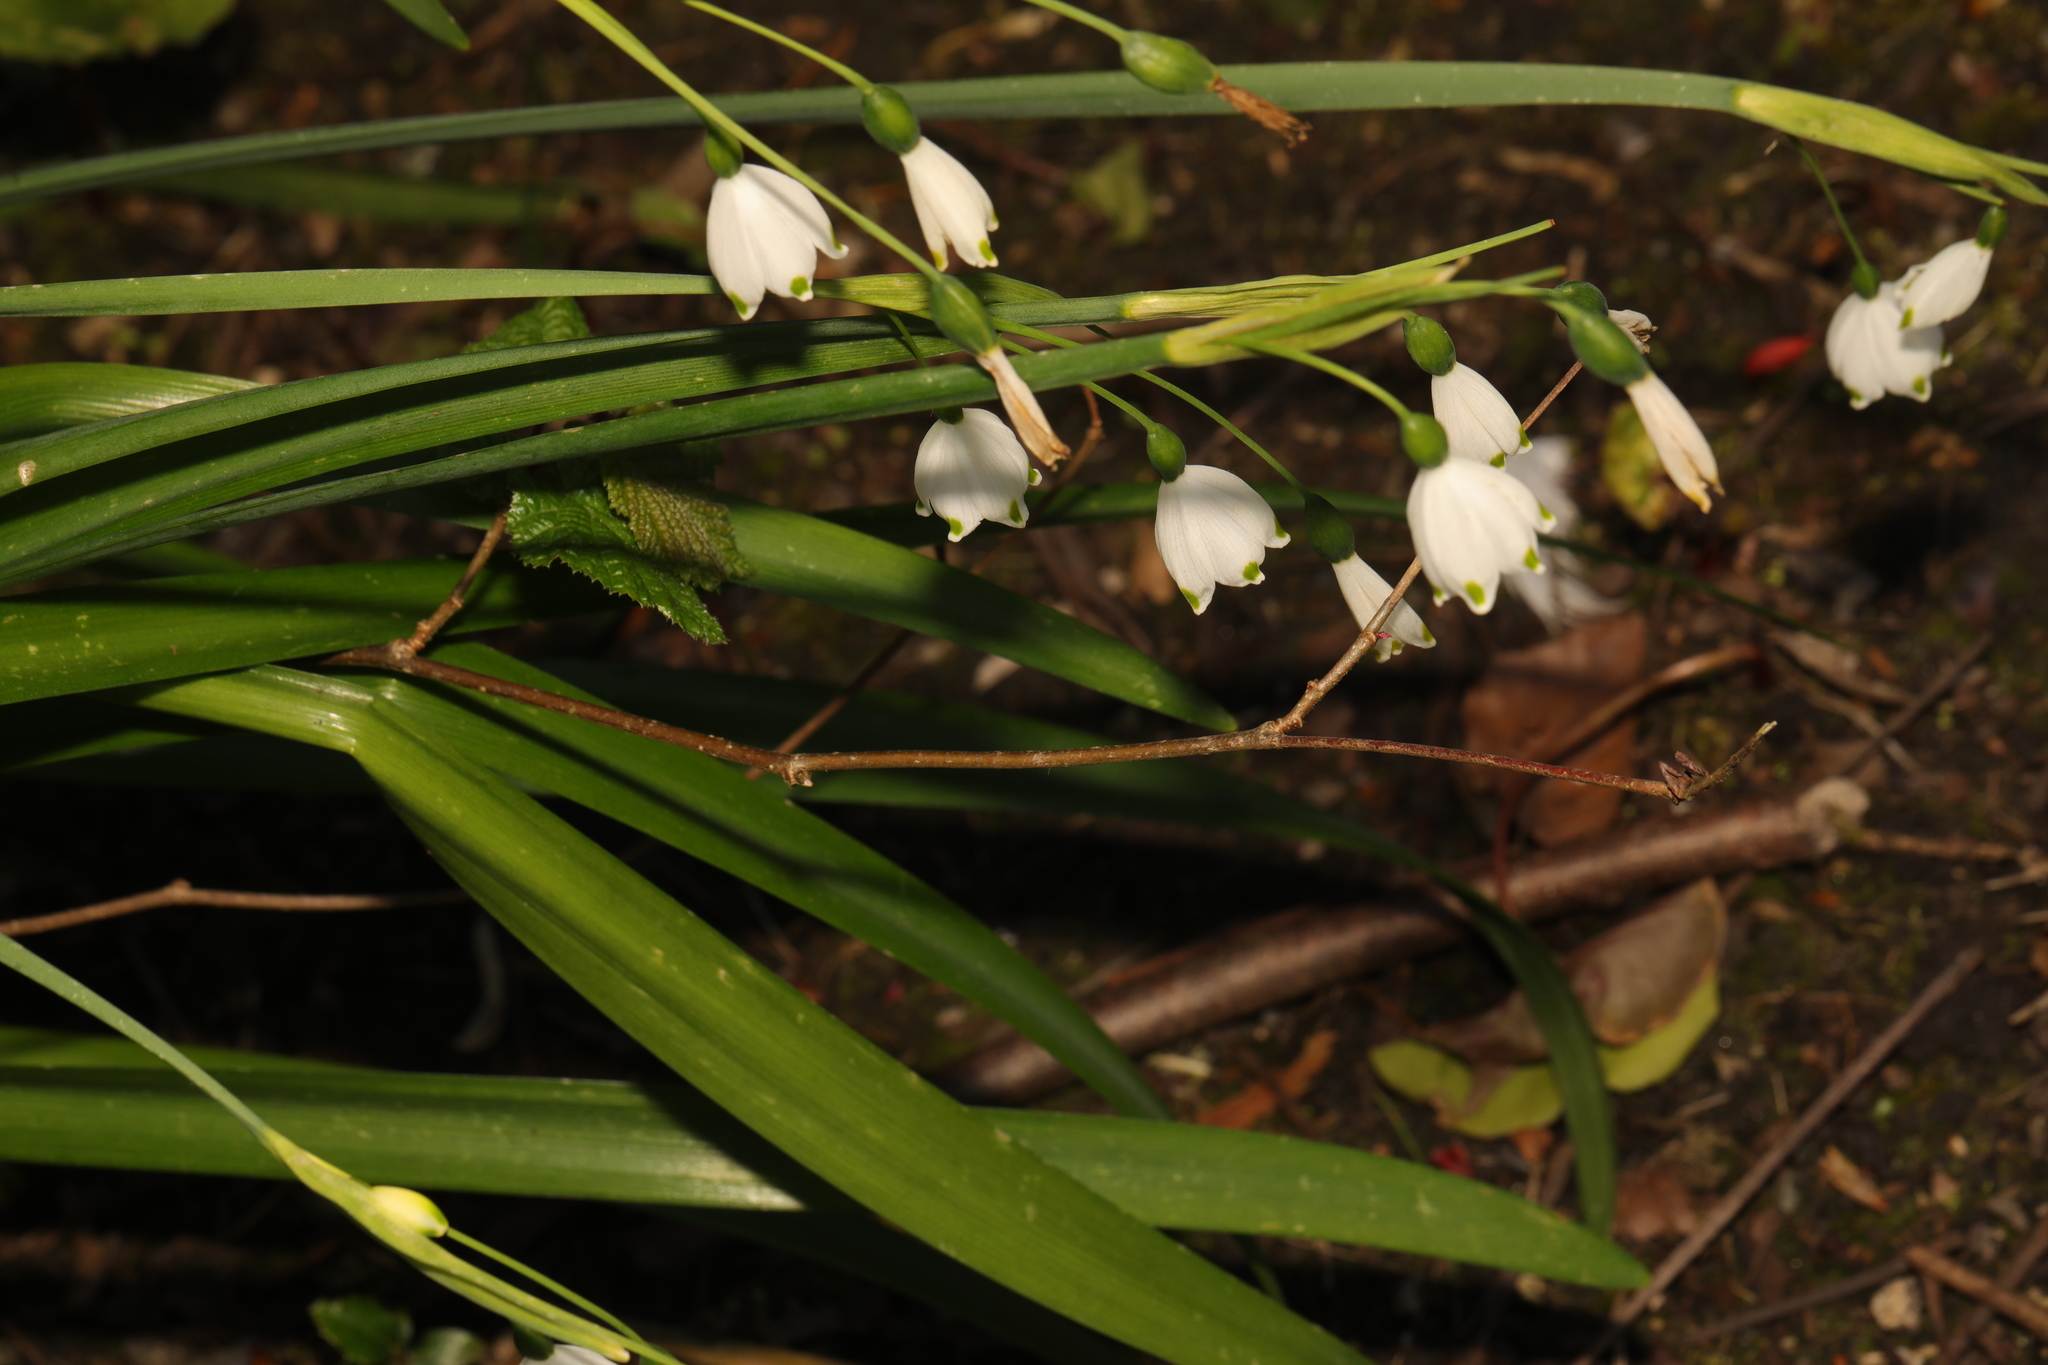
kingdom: Plantae
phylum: Tracheophyta
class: Liliopsida
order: Asparagales
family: Amaryllidaceae
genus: Leucojum
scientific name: Leucojum aestivum
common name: Summer snowflake
